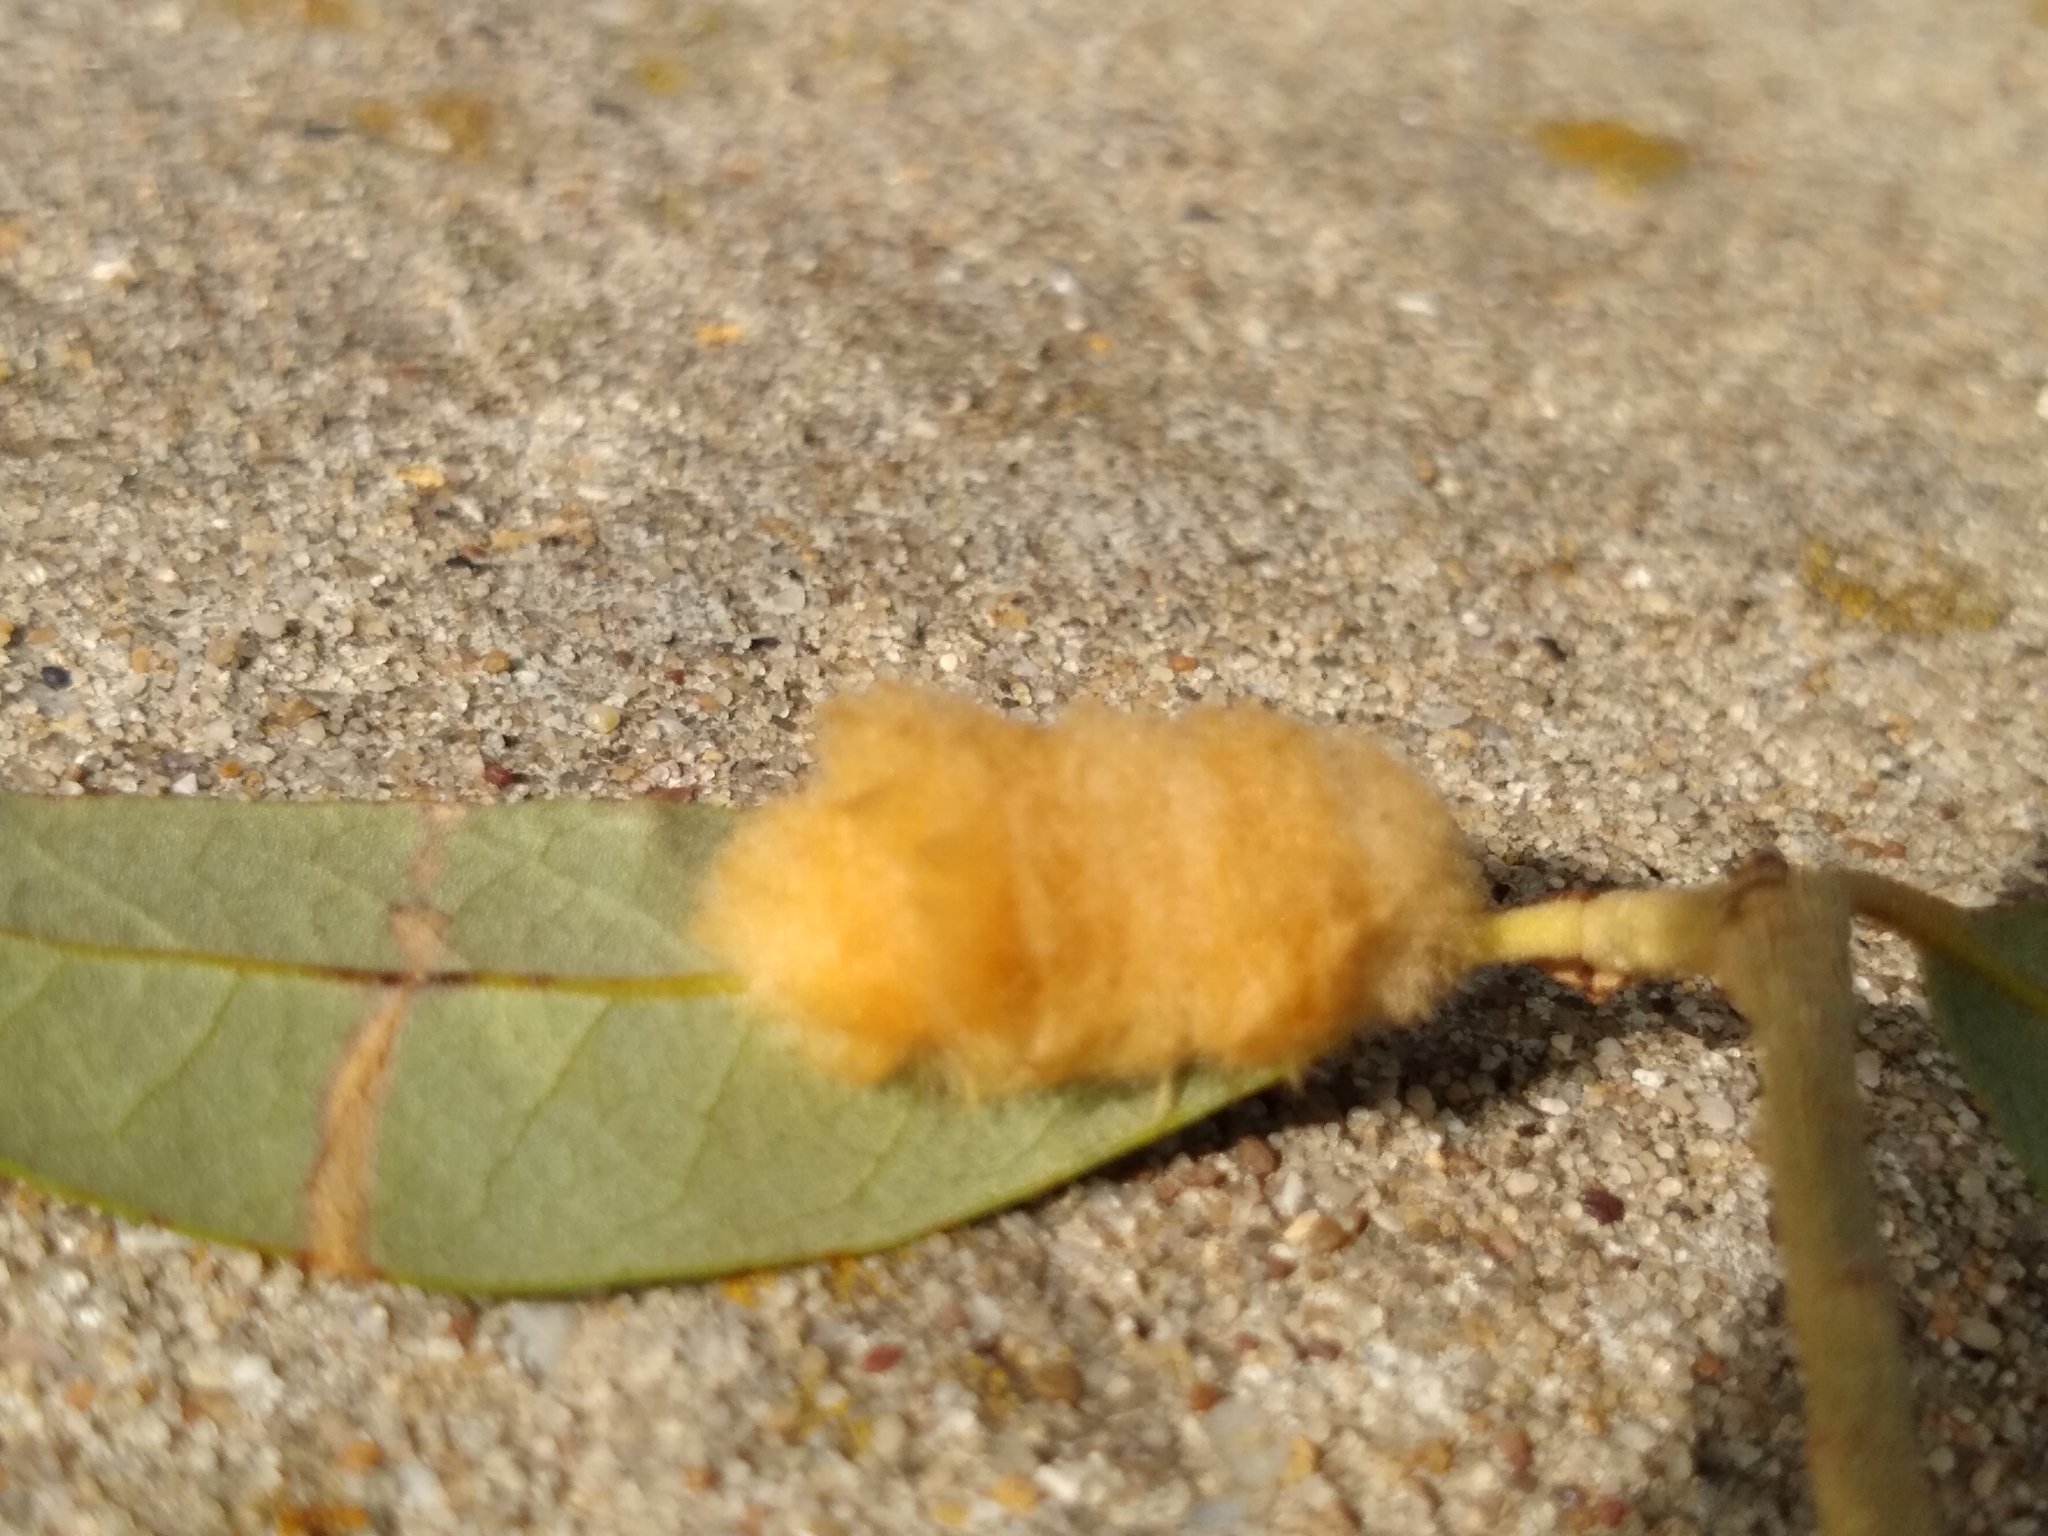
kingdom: Animalia
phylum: Arthropoda
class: Insecta
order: Hymenoptera
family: Cynipidae
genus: Andricus
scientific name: Andricus Druon pattoni
